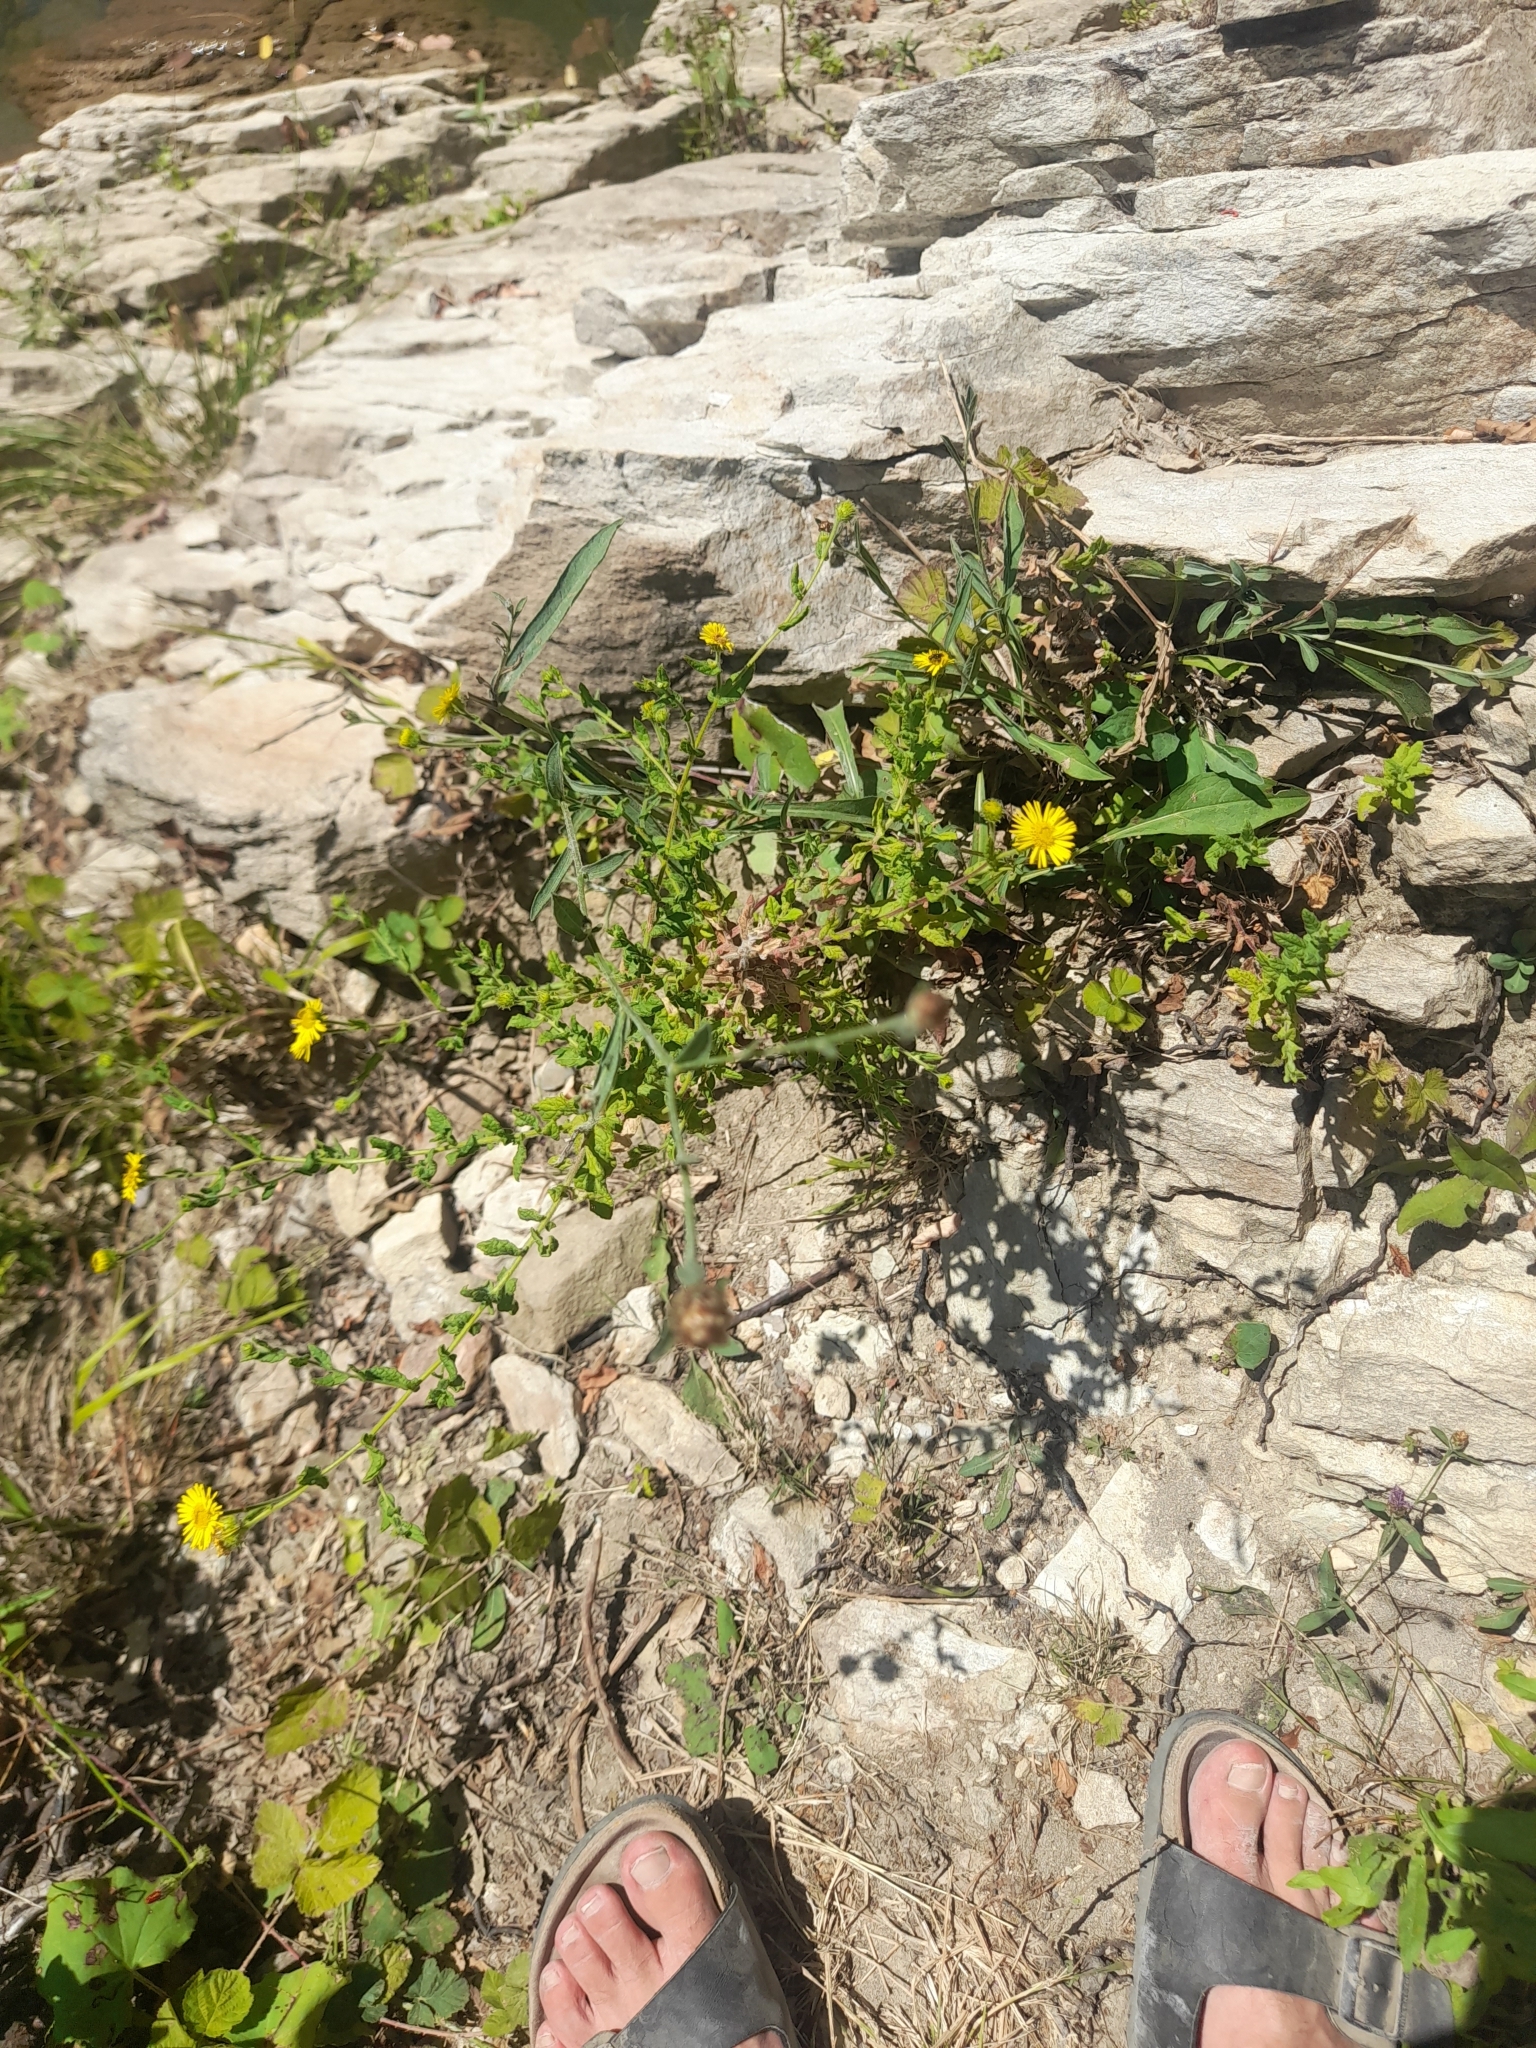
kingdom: Plantae
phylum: Tracheophyta
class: Magnoliopsida
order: Asterales
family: Asteraceae
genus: Pulicaria
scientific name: Pulicaria dysenterica
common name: Common fleabane
